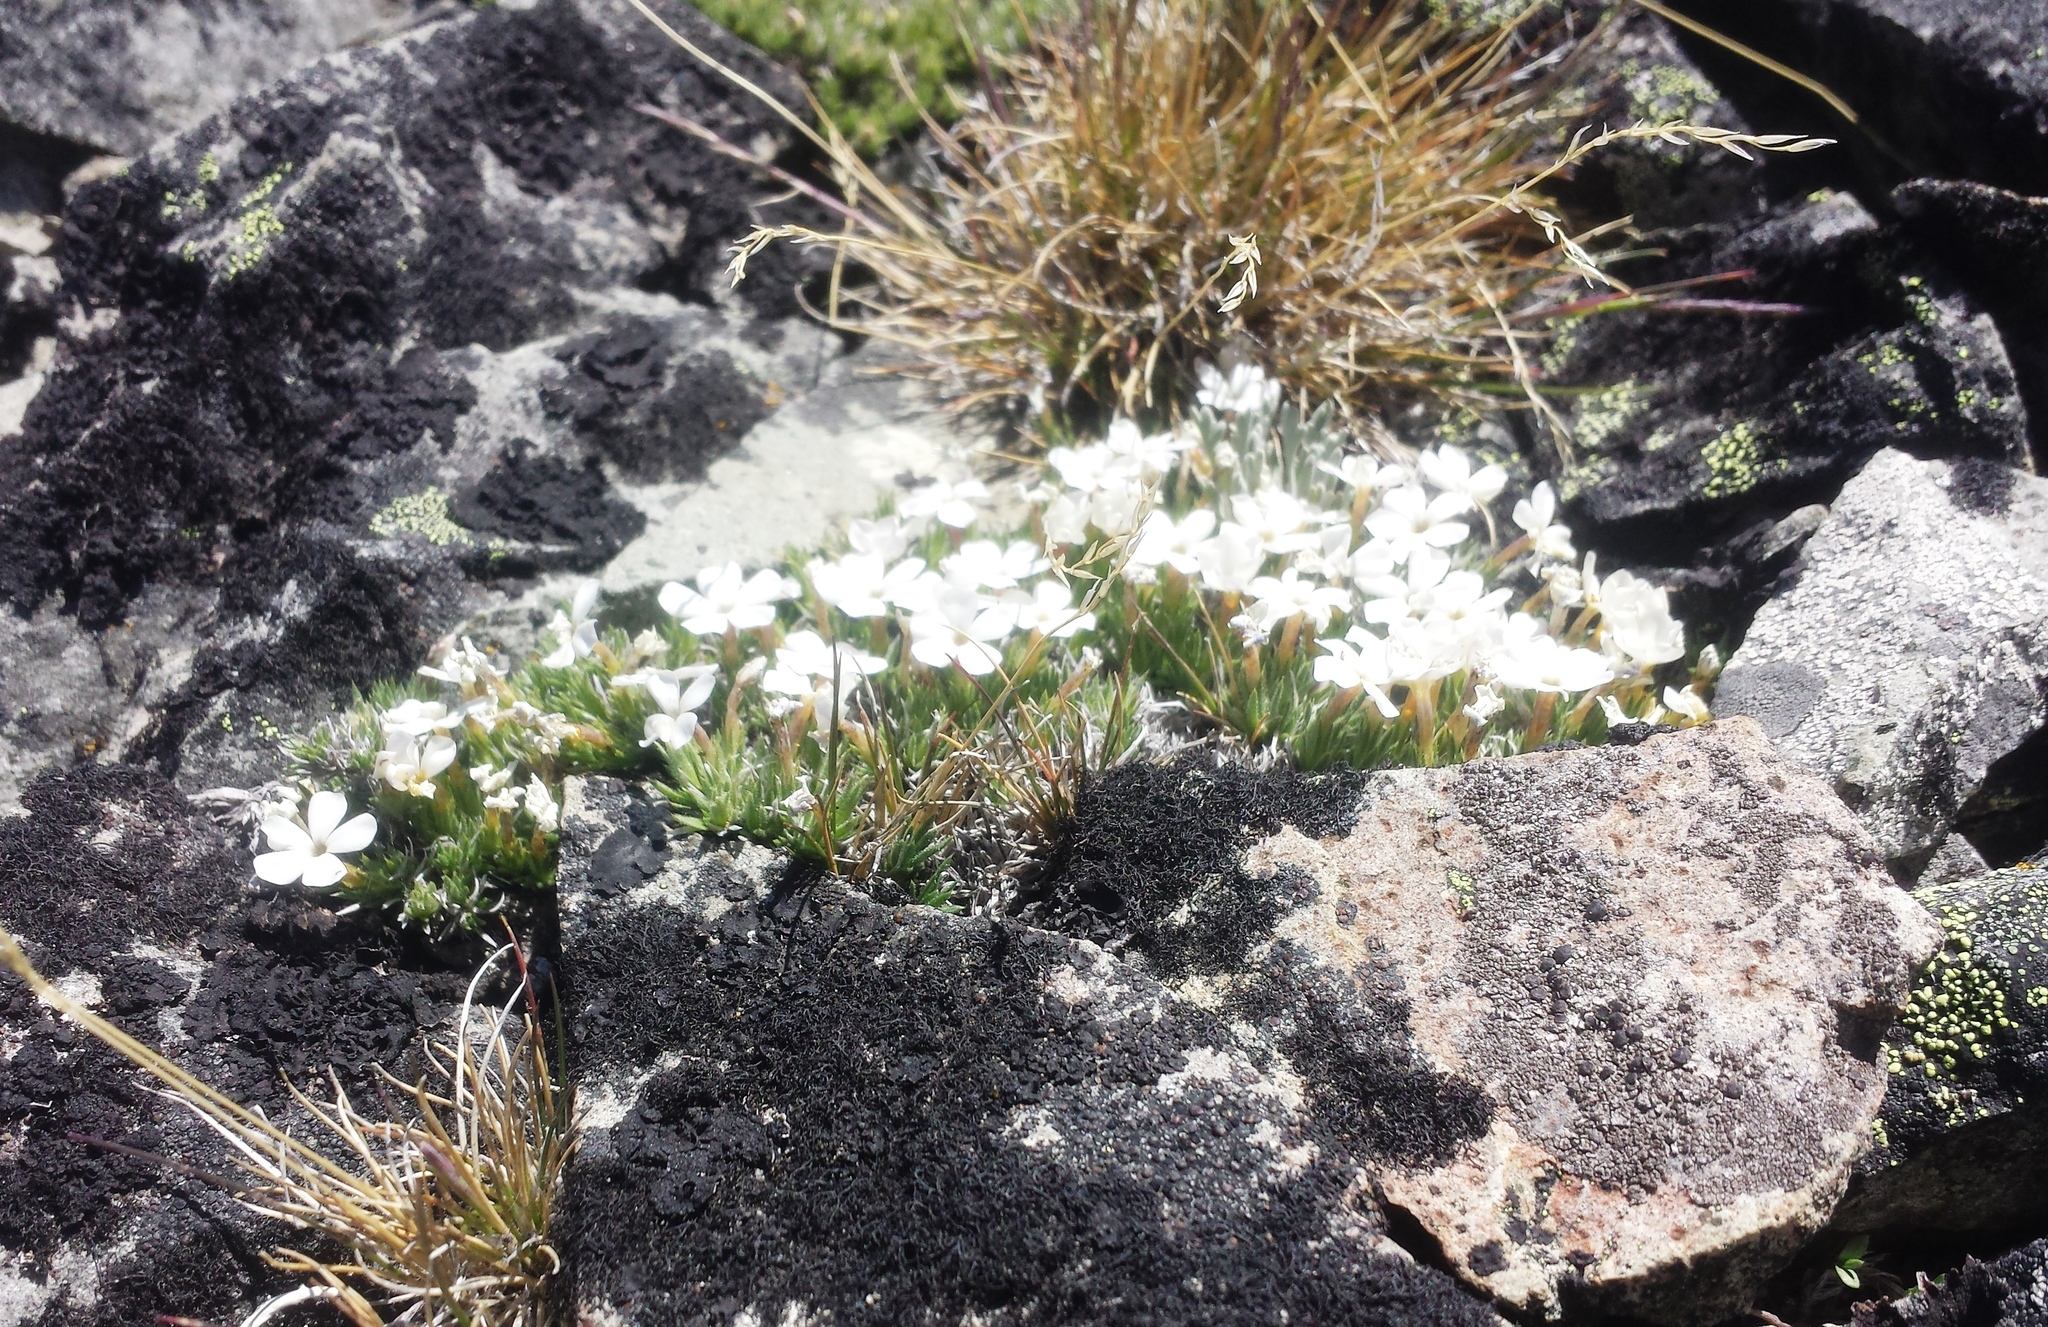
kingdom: Plantae
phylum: Tracheophyta
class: Magnoliopsida
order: Ericales
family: Polemoniaceae
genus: Phlox
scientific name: Phlox diffusa
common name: Mat phlox
